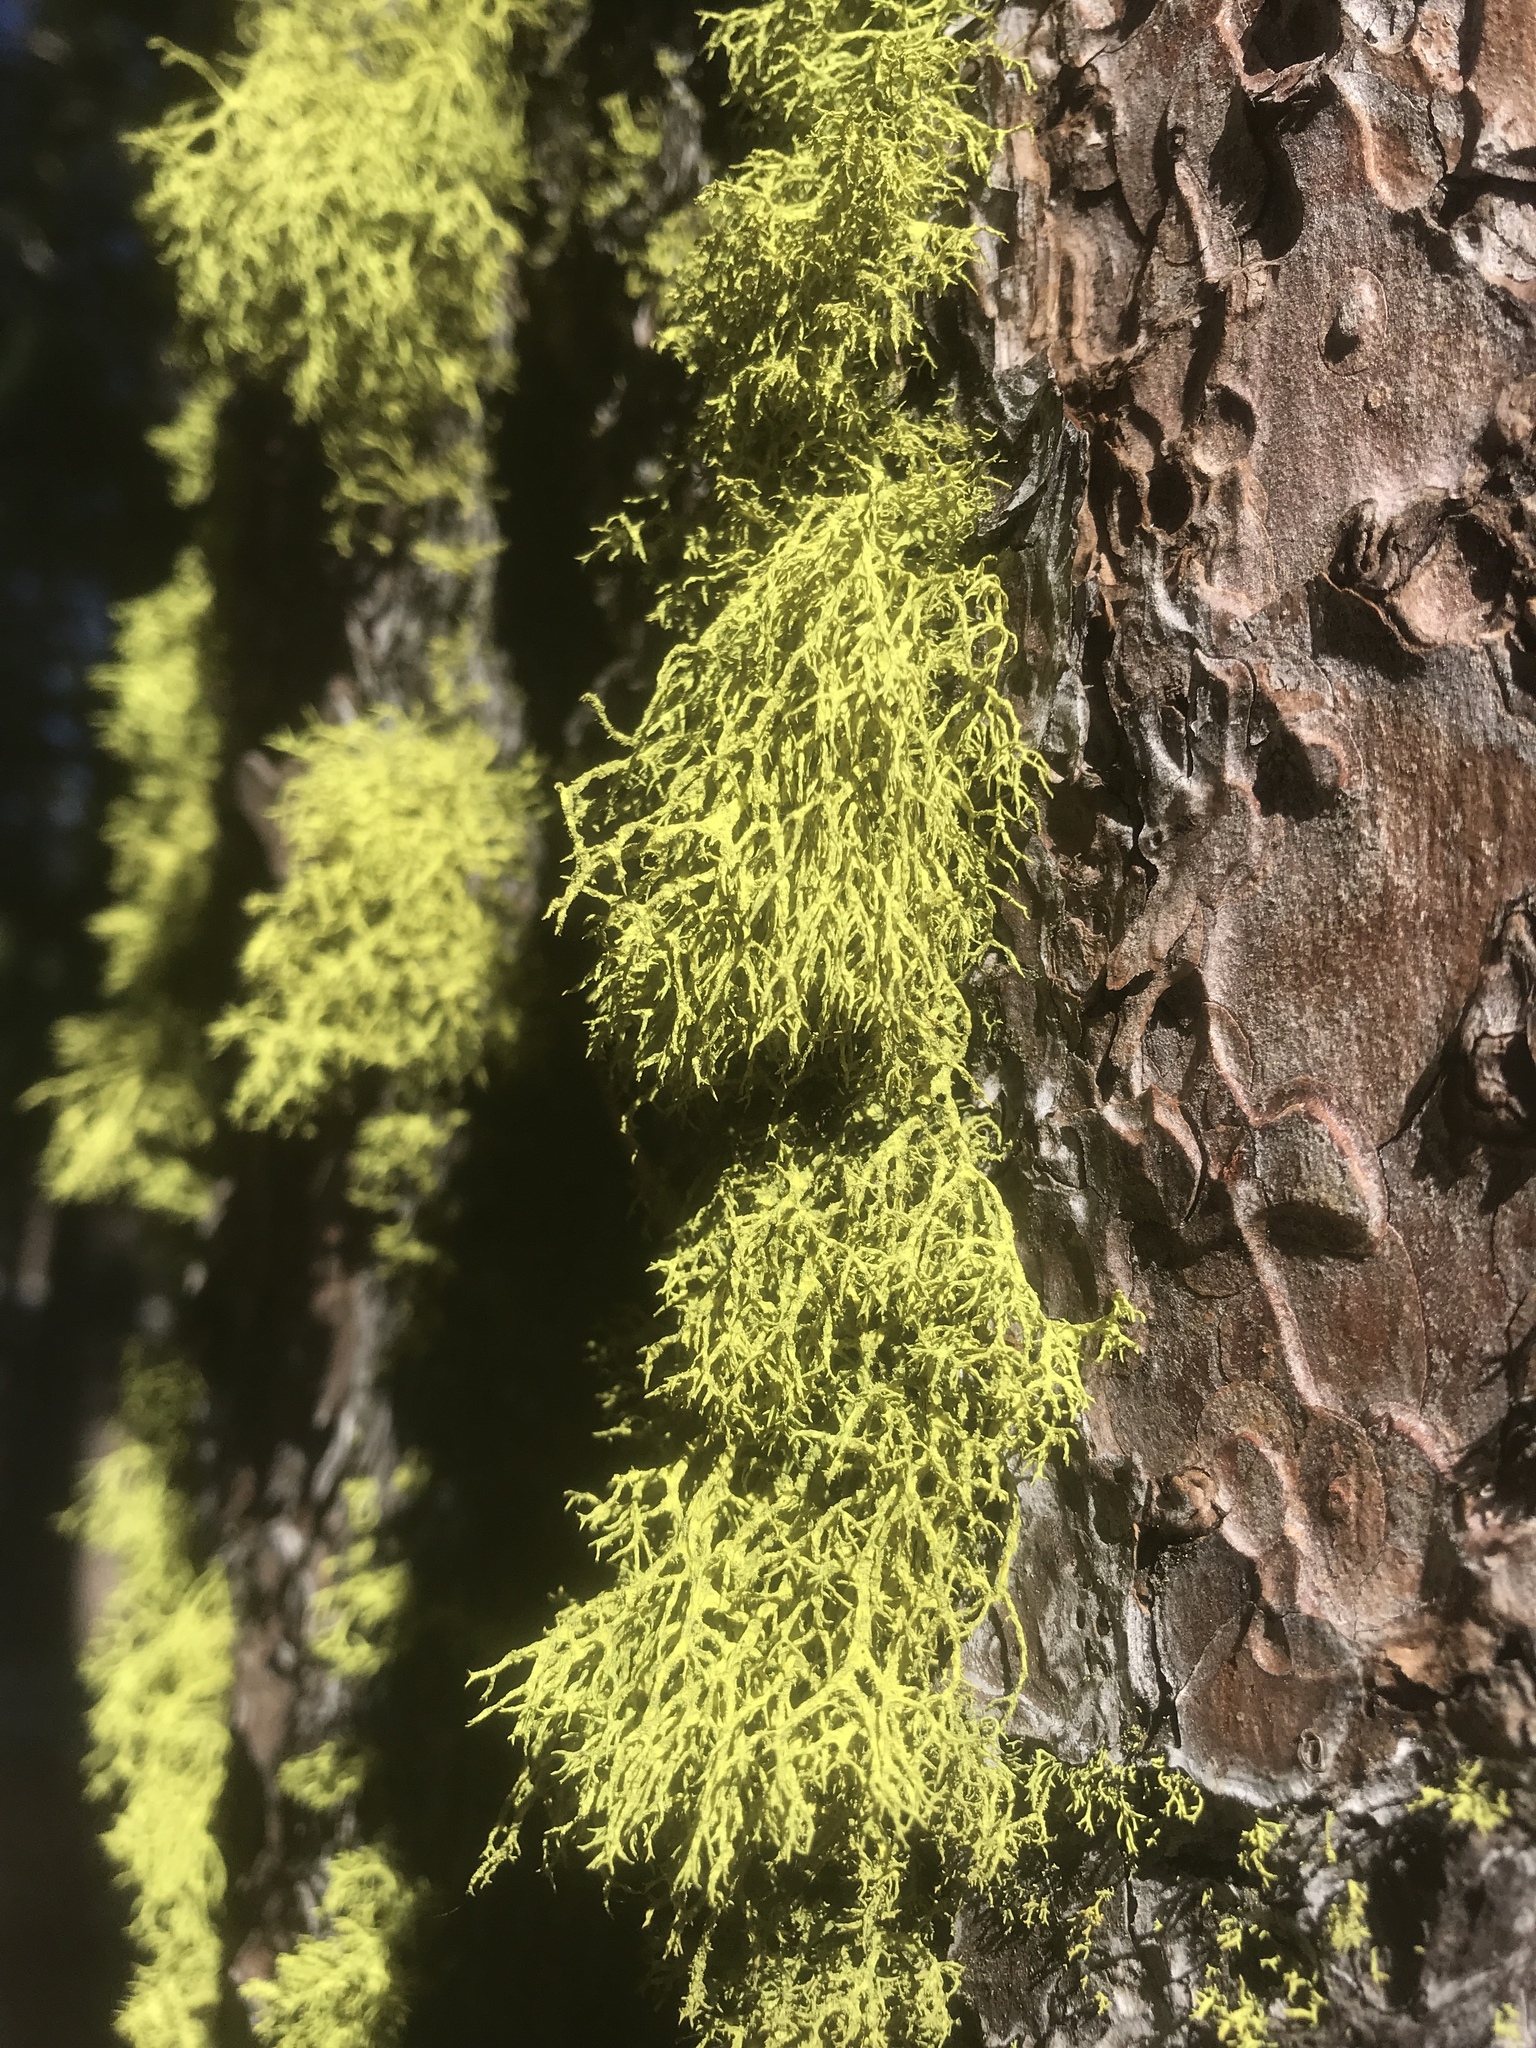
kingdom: Fungi
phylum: Ascomycota
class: Lecanoromycetes
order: Lecanorales
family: Parmeliaceae
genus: Letharia
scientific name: Letharia vulpina
